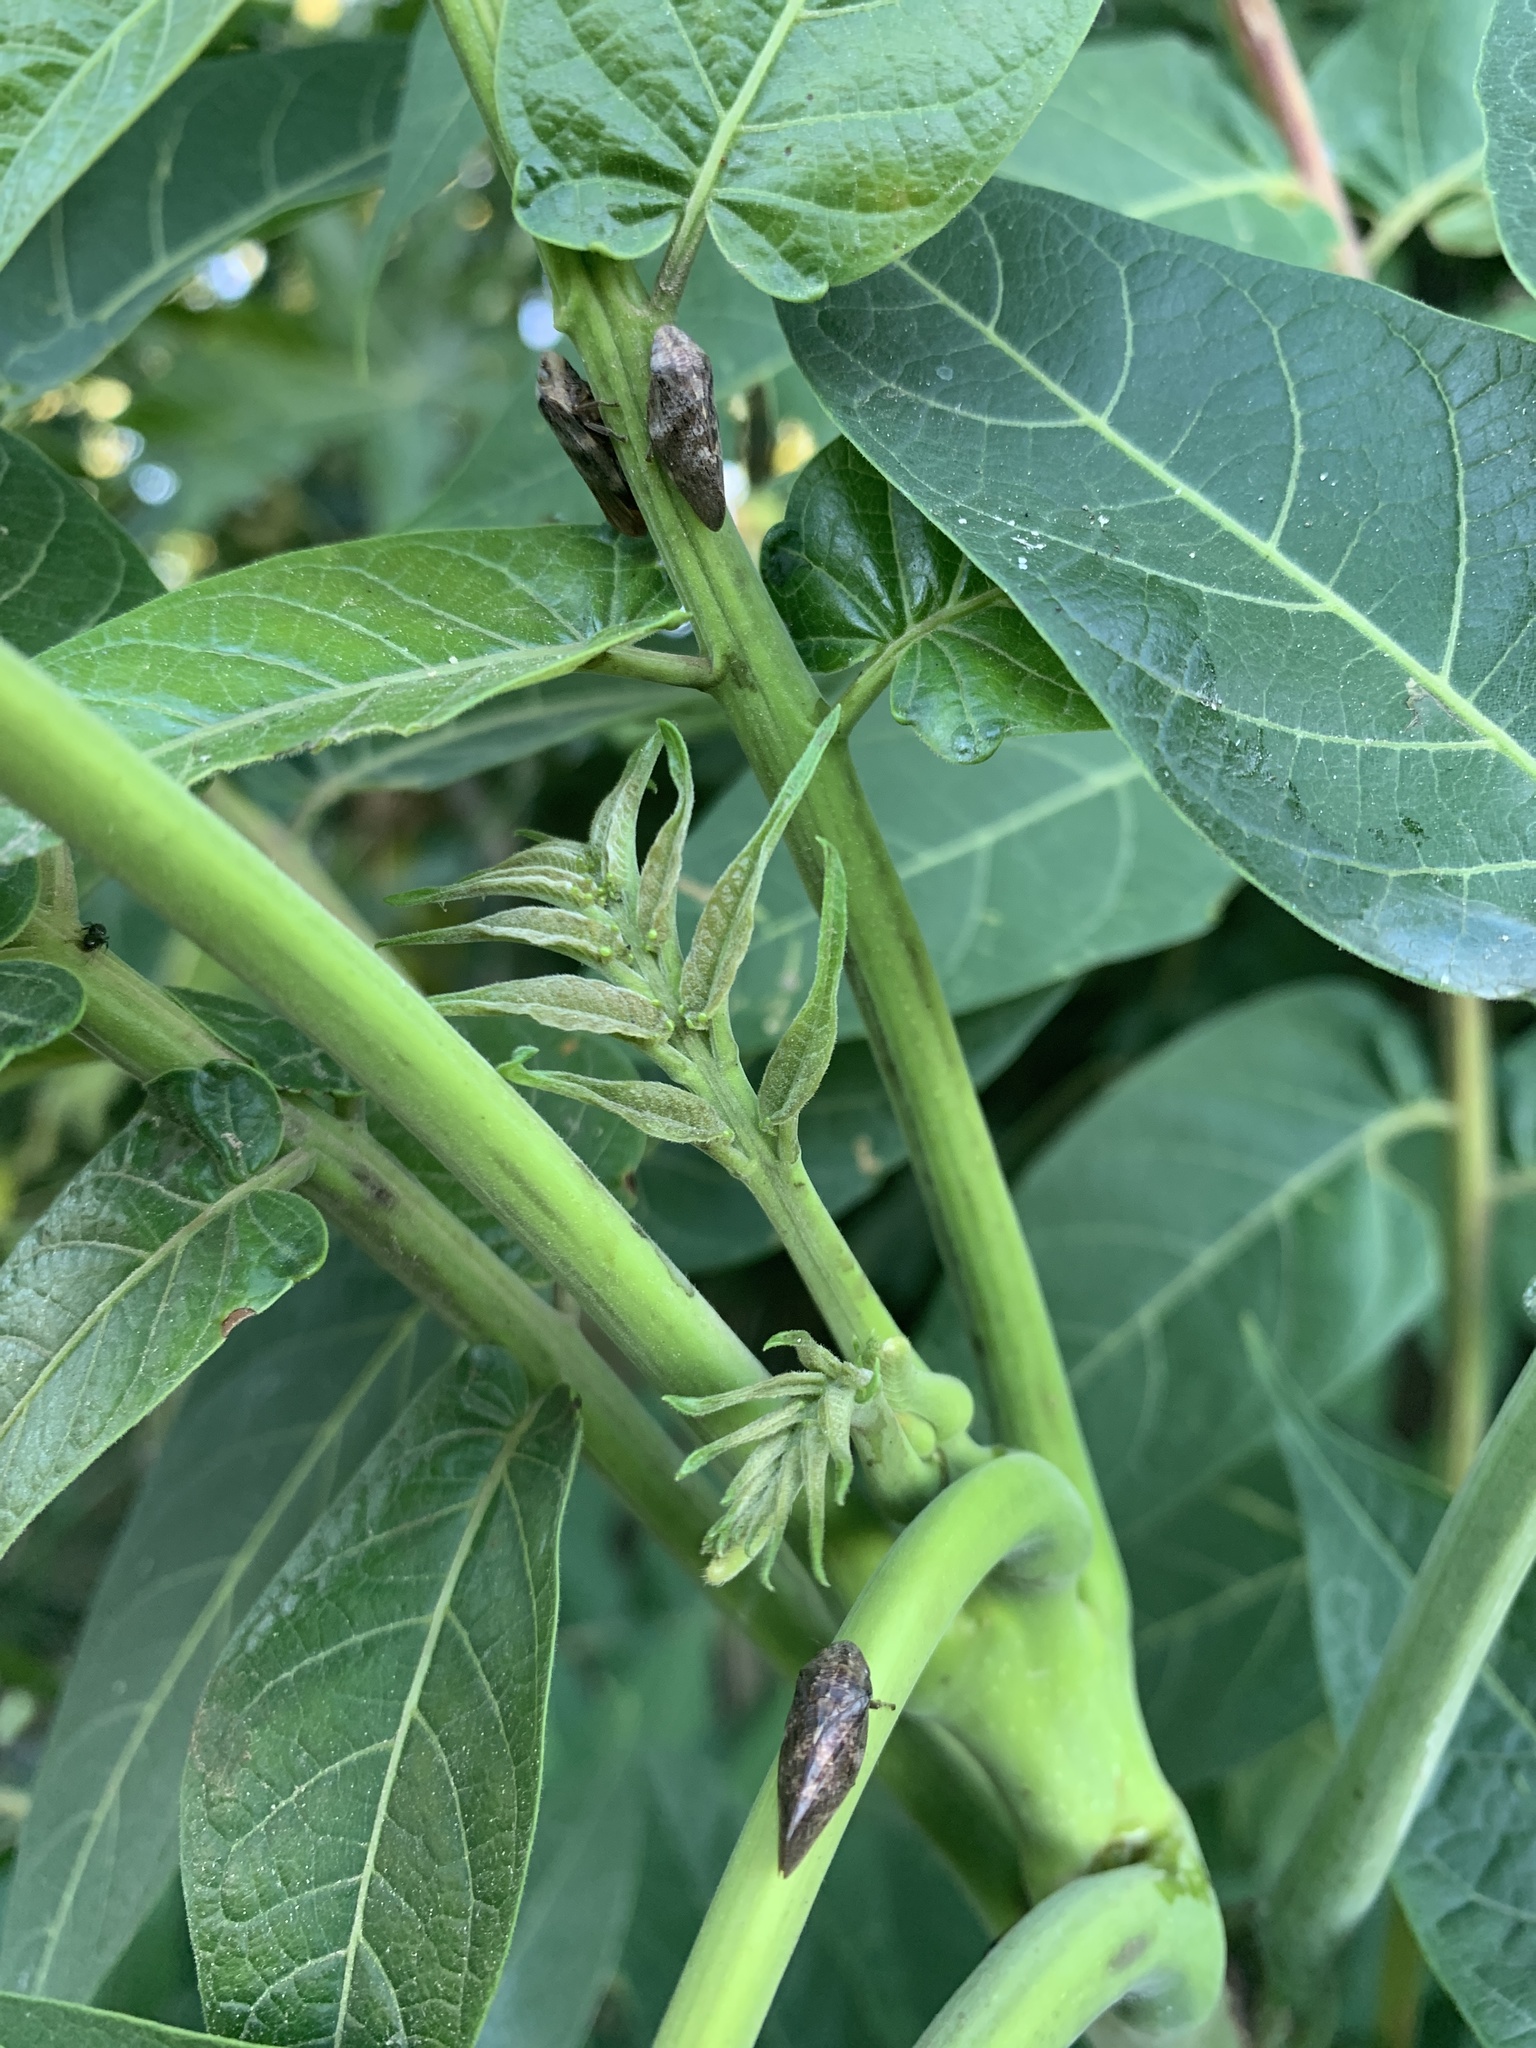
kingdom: Animalia
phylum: Arthropoda
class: Insecta
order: Hemiptera
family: Aphrophoridae
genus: Cephisus
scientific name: Cephisus siccifolius
